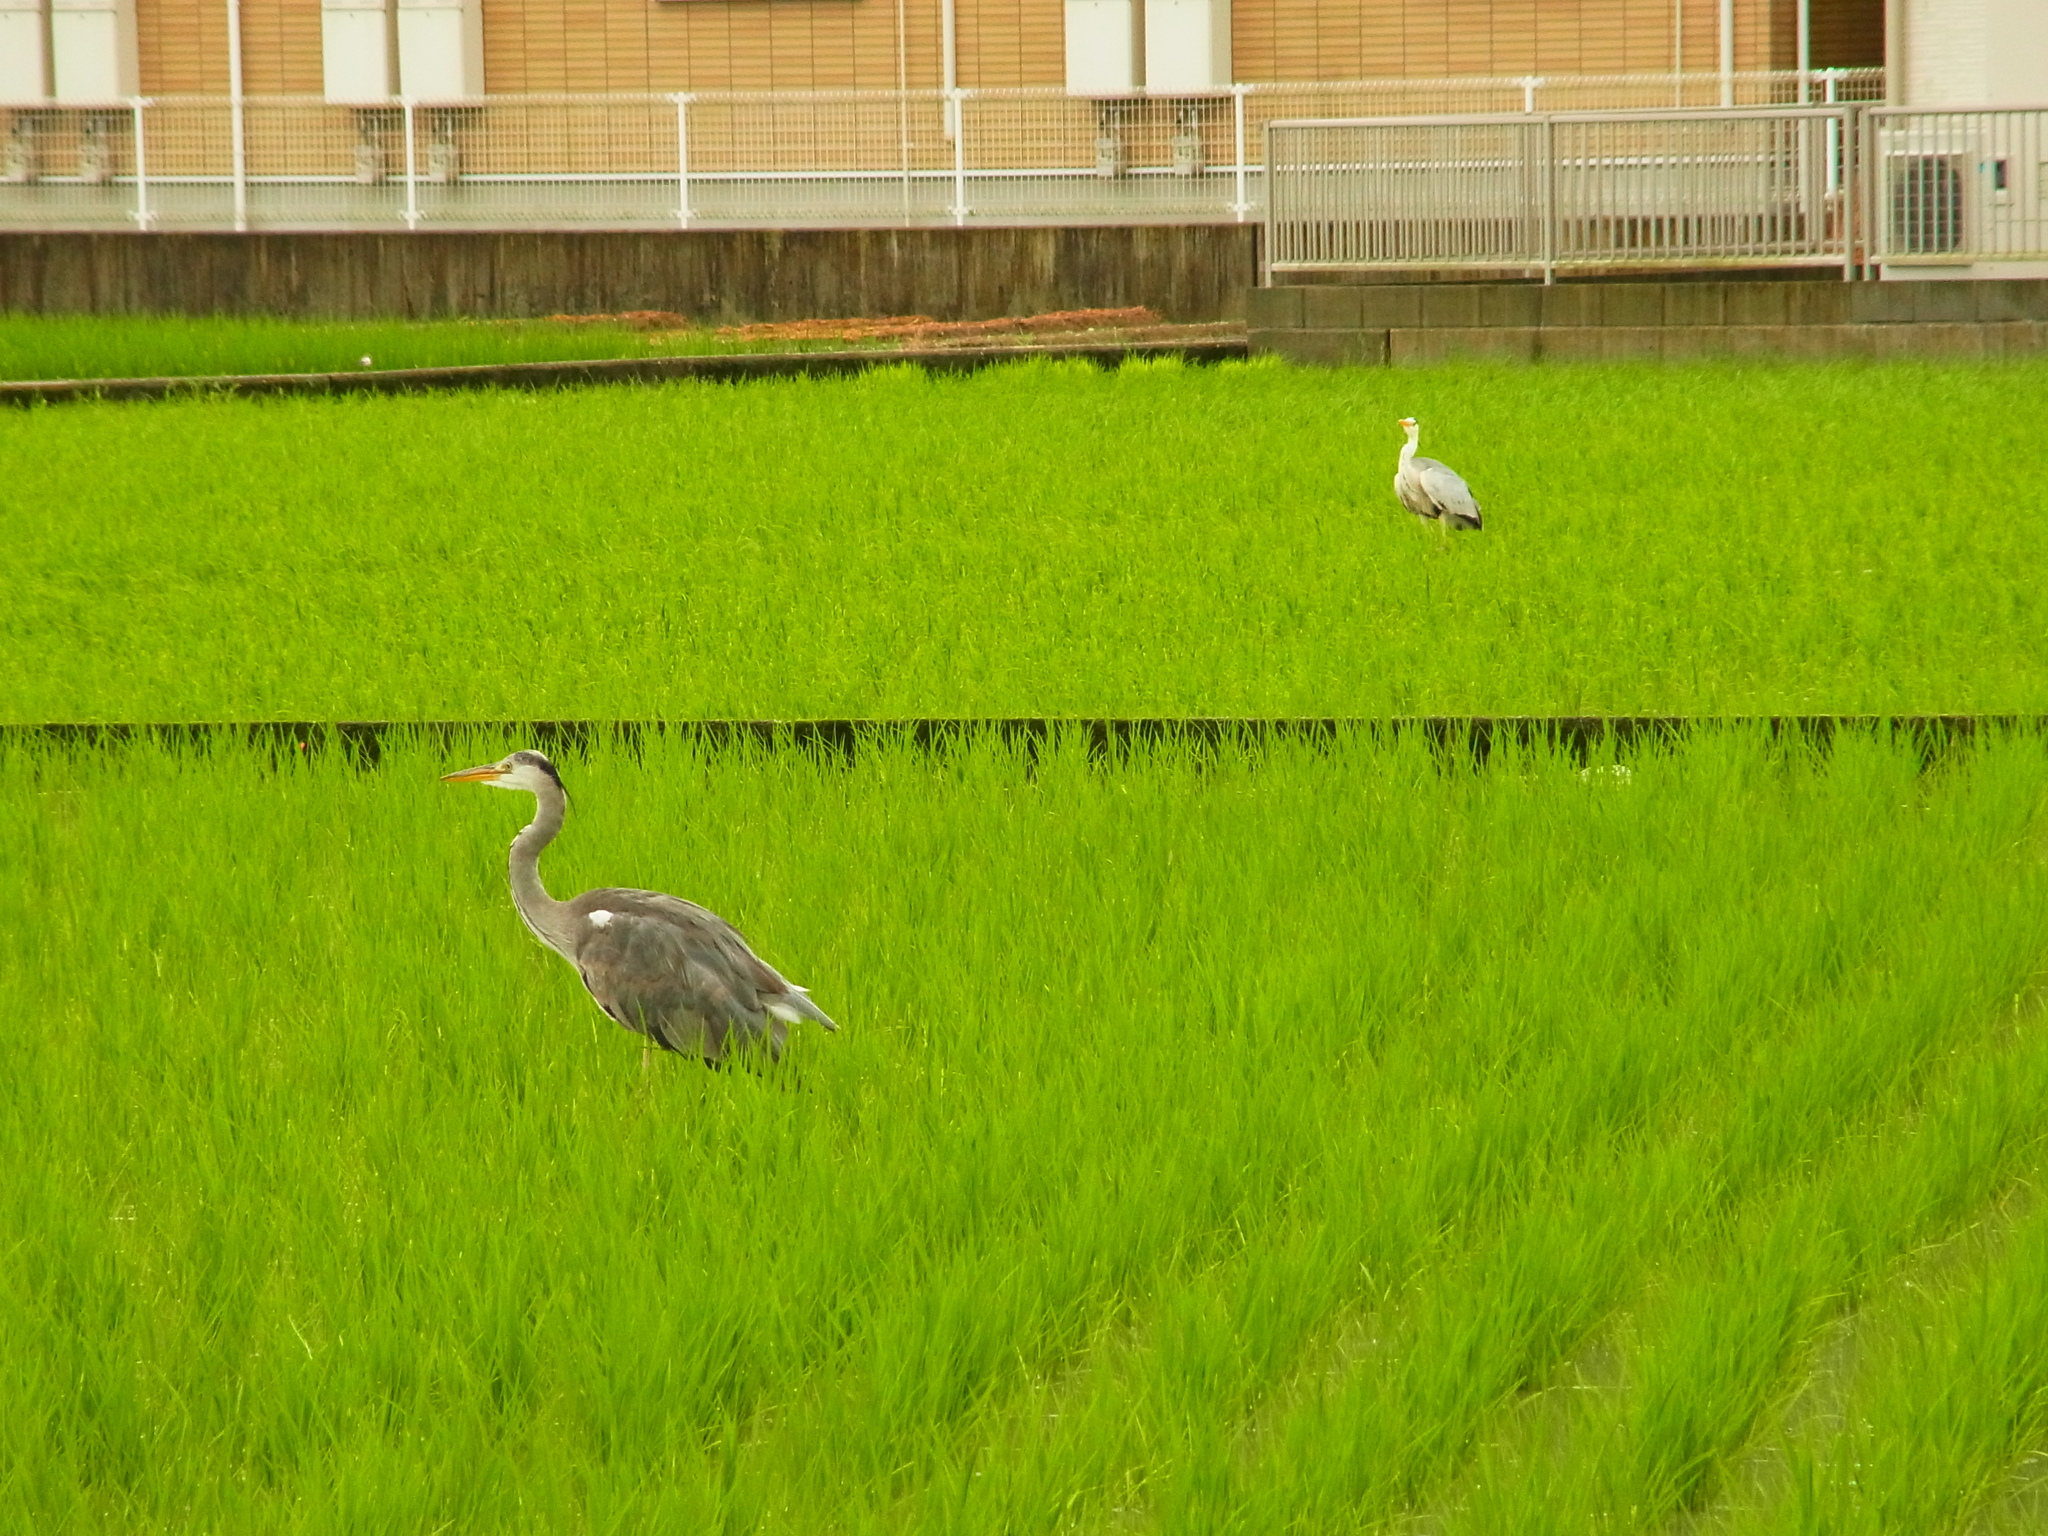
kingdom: Animalia
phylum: Chordata
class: Aves
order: Pelecaniformes
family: Ardeidae
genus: Ardea
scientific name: Ardea cinerea
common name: Grey heron
